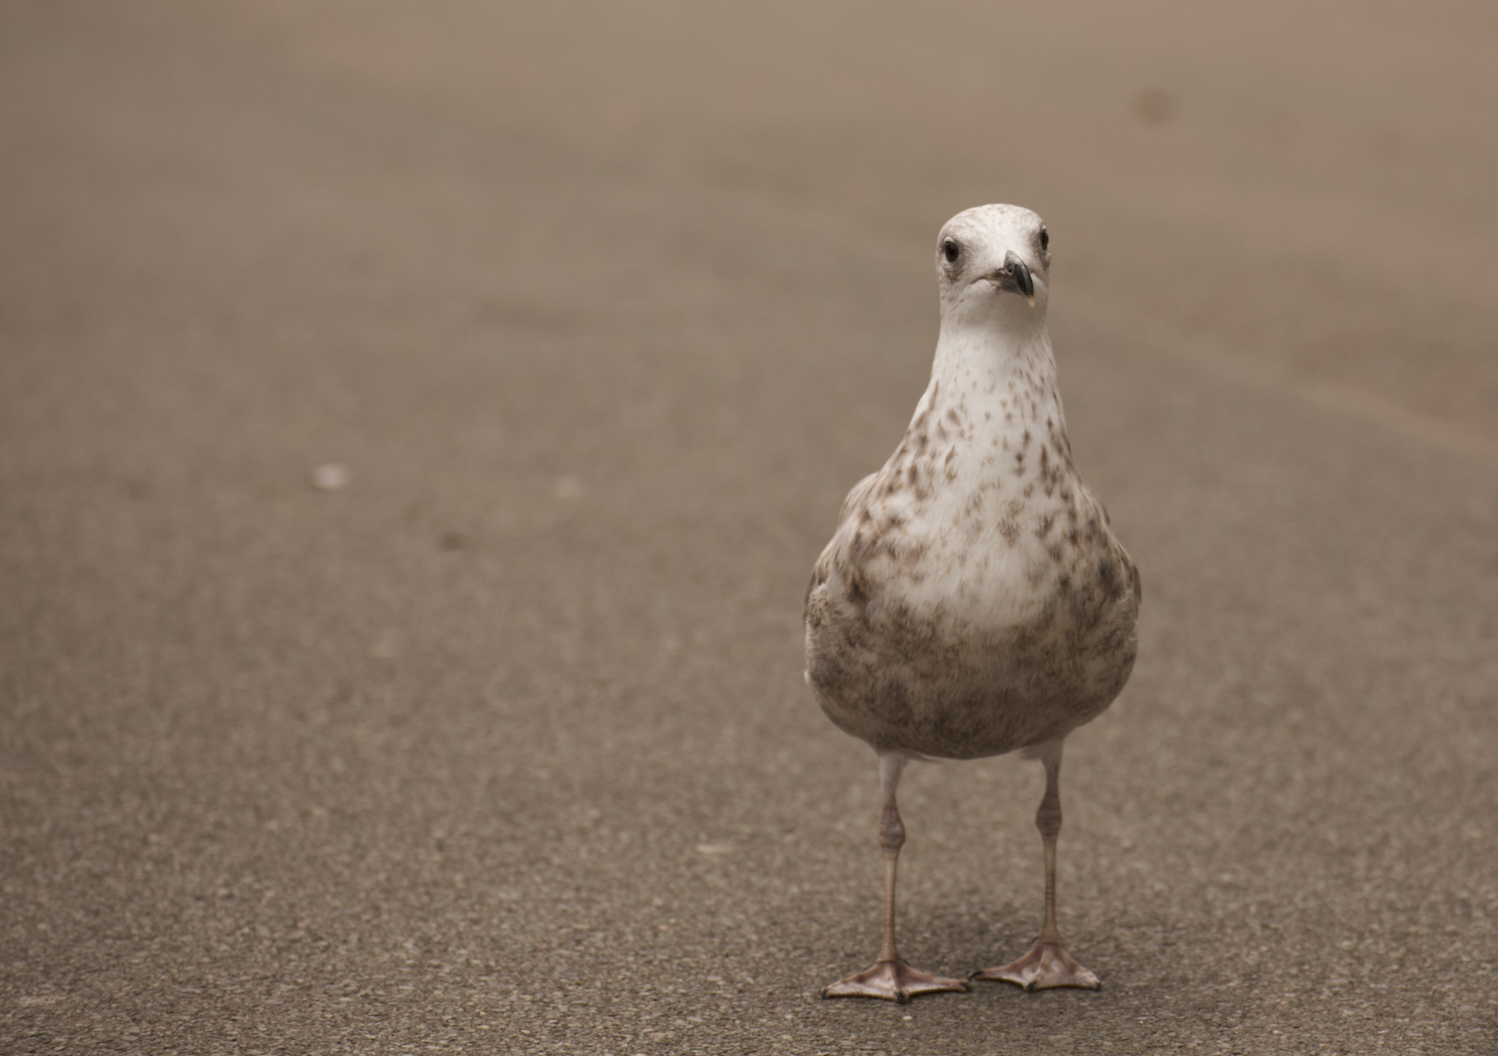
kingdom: Animalia
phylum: Chordata
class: Aves
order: Charadriiformes
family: Laridae
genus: Larus
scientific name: Larus argentatus
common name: Herring gull
